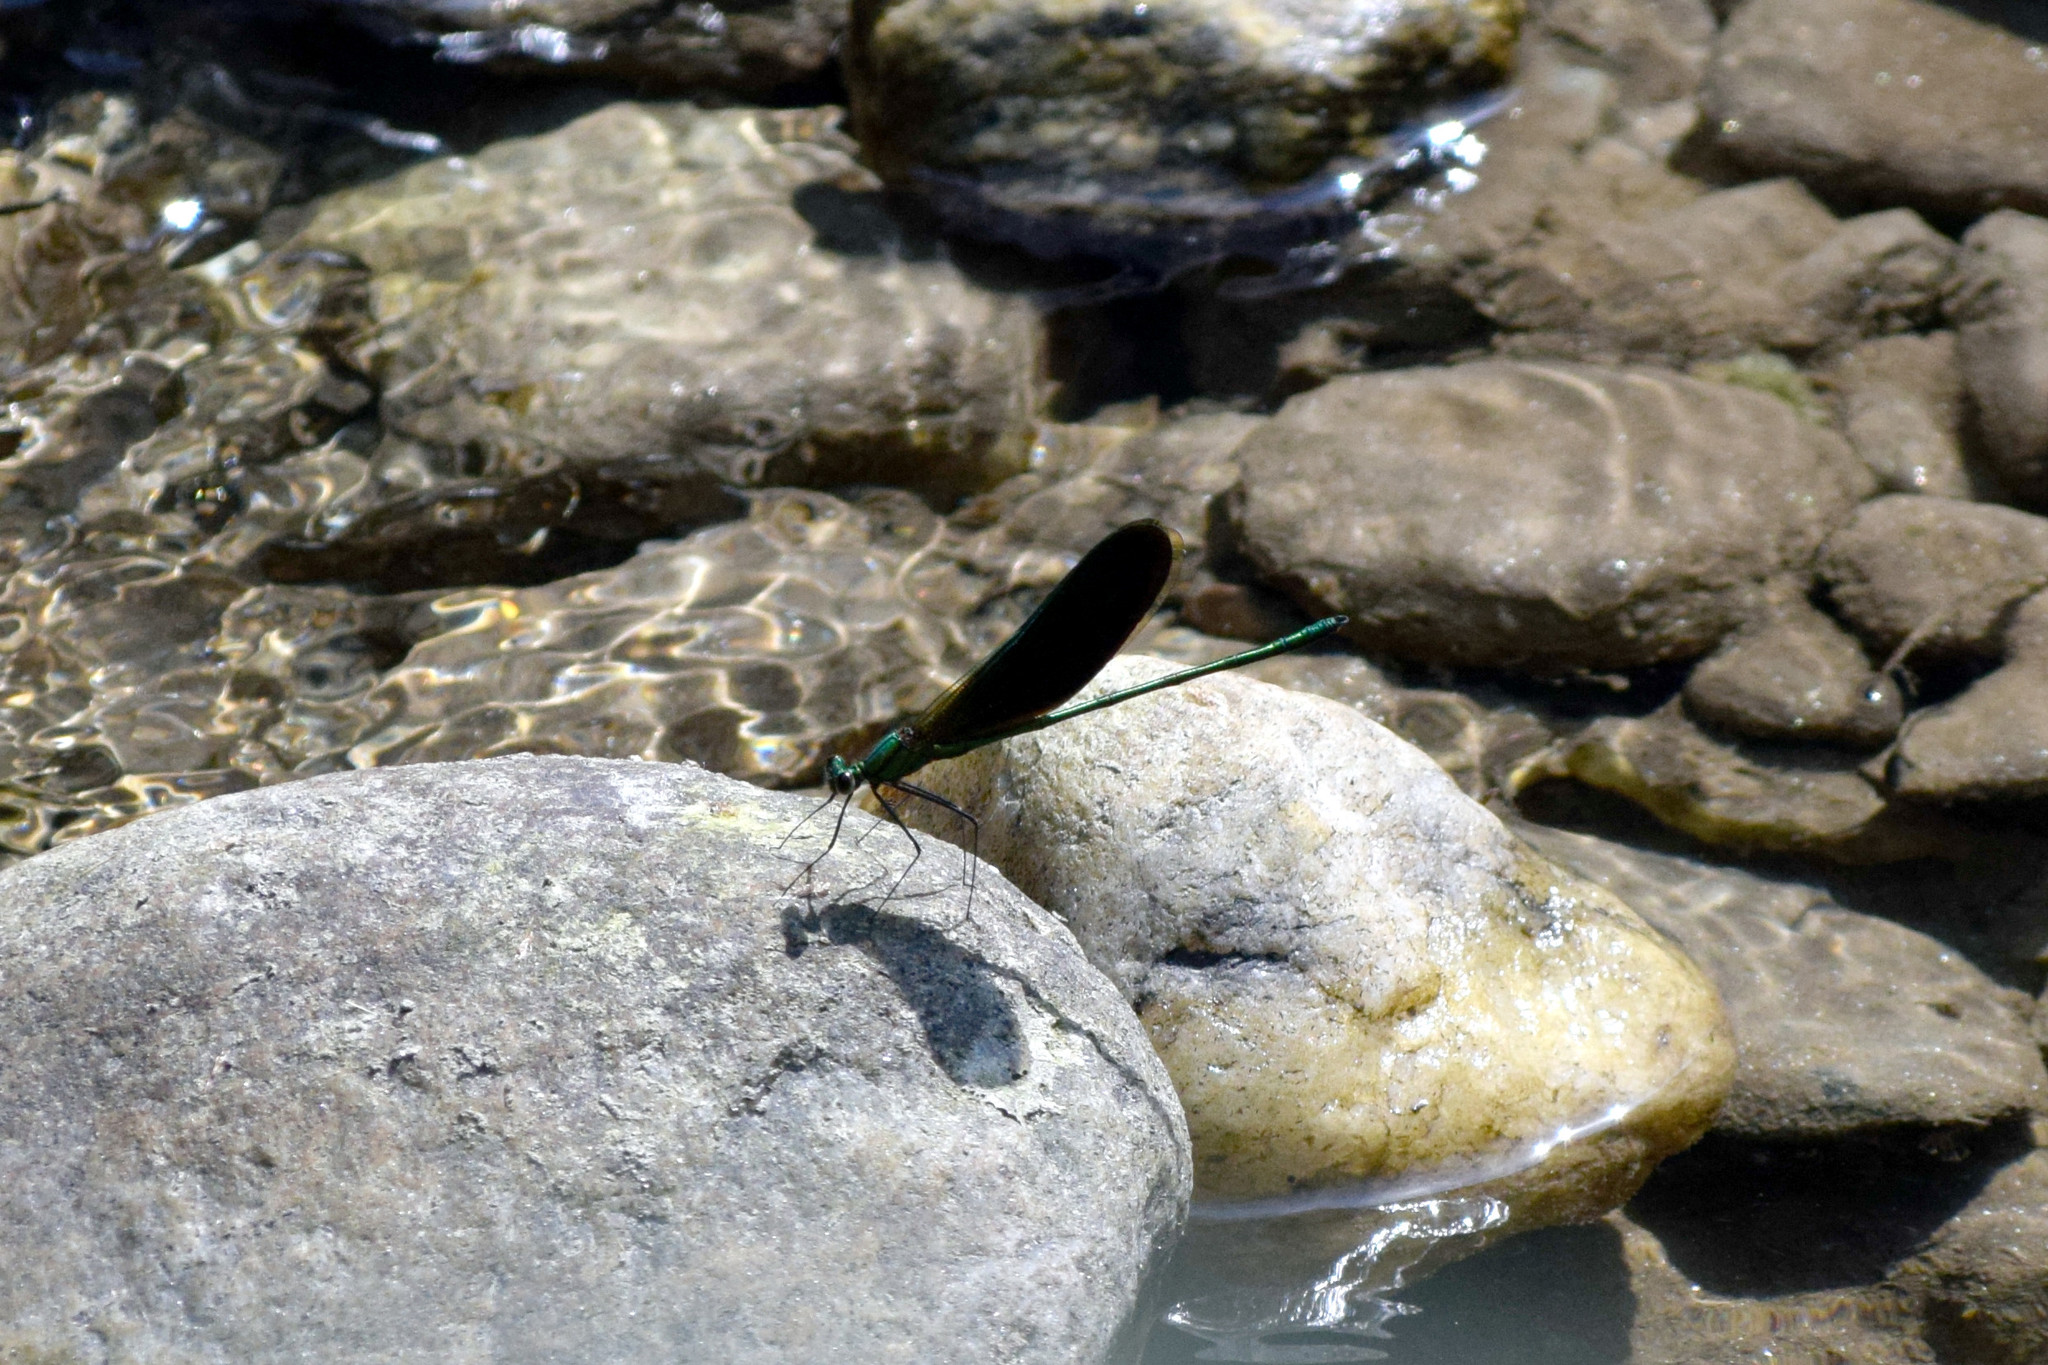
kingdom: Animalia
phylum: Arthropoda
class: Insecta
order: Odonata
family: Calopterygidae
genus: Neurobasis
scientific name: Neurobasis chinensis
